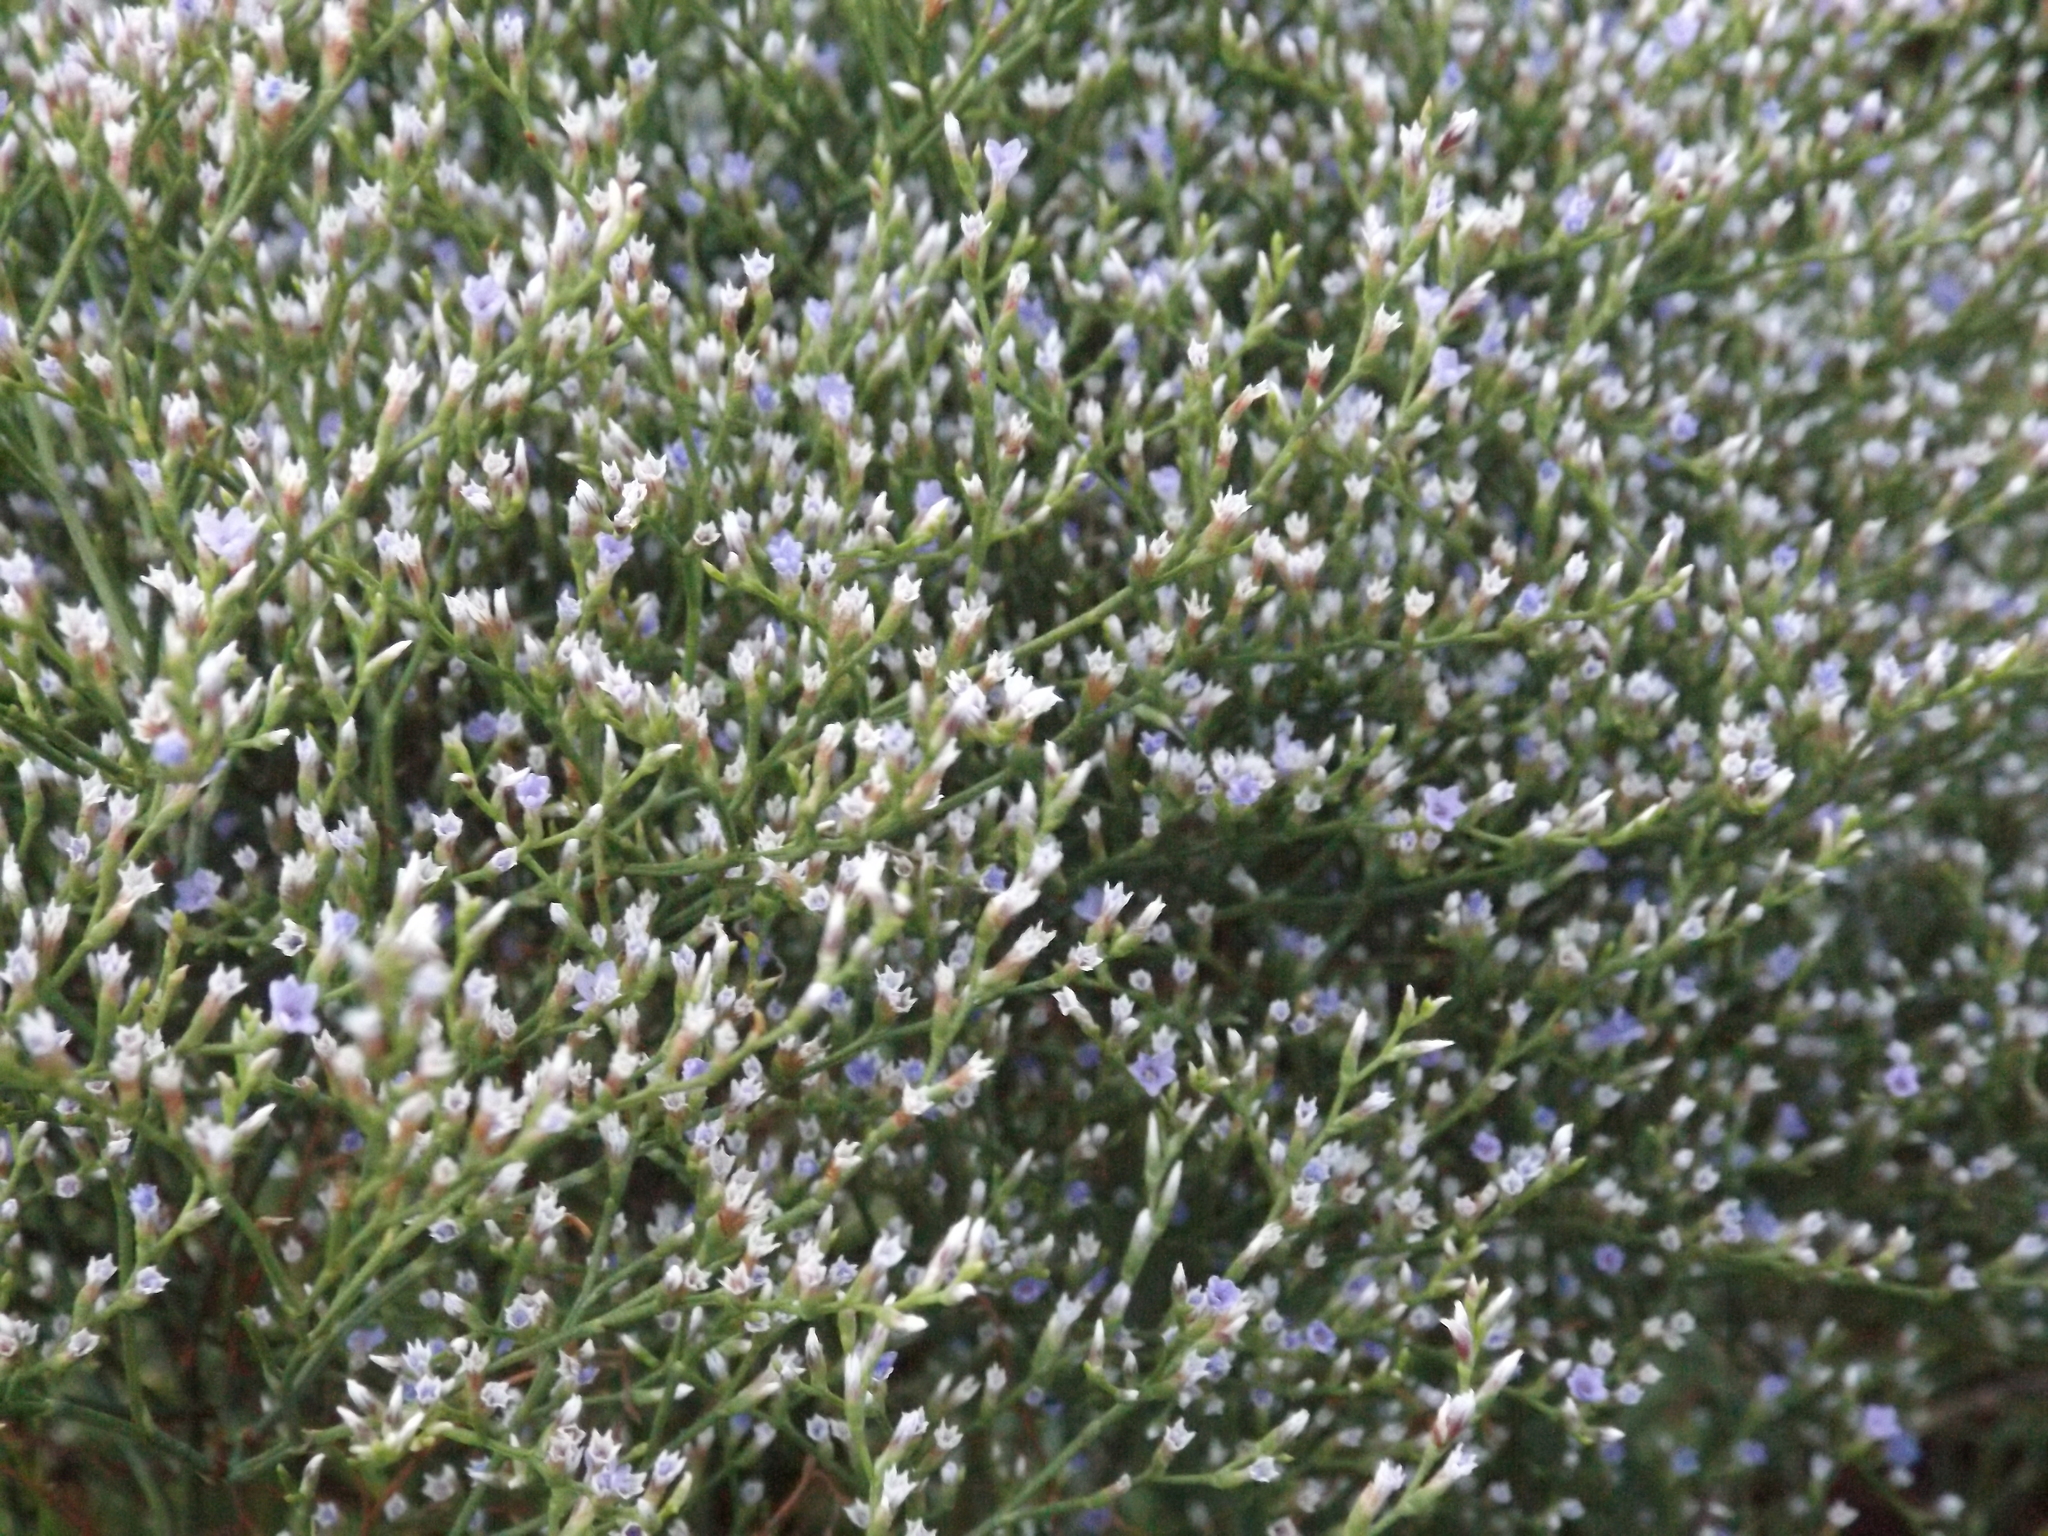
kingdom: Plantae
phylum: Tracheophyta
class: Magnoliopsida
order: Caryophyllales
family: Plumbaginaceae
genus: Limonium
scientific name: Limonium carolinianum
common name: Carolina sea lavender
